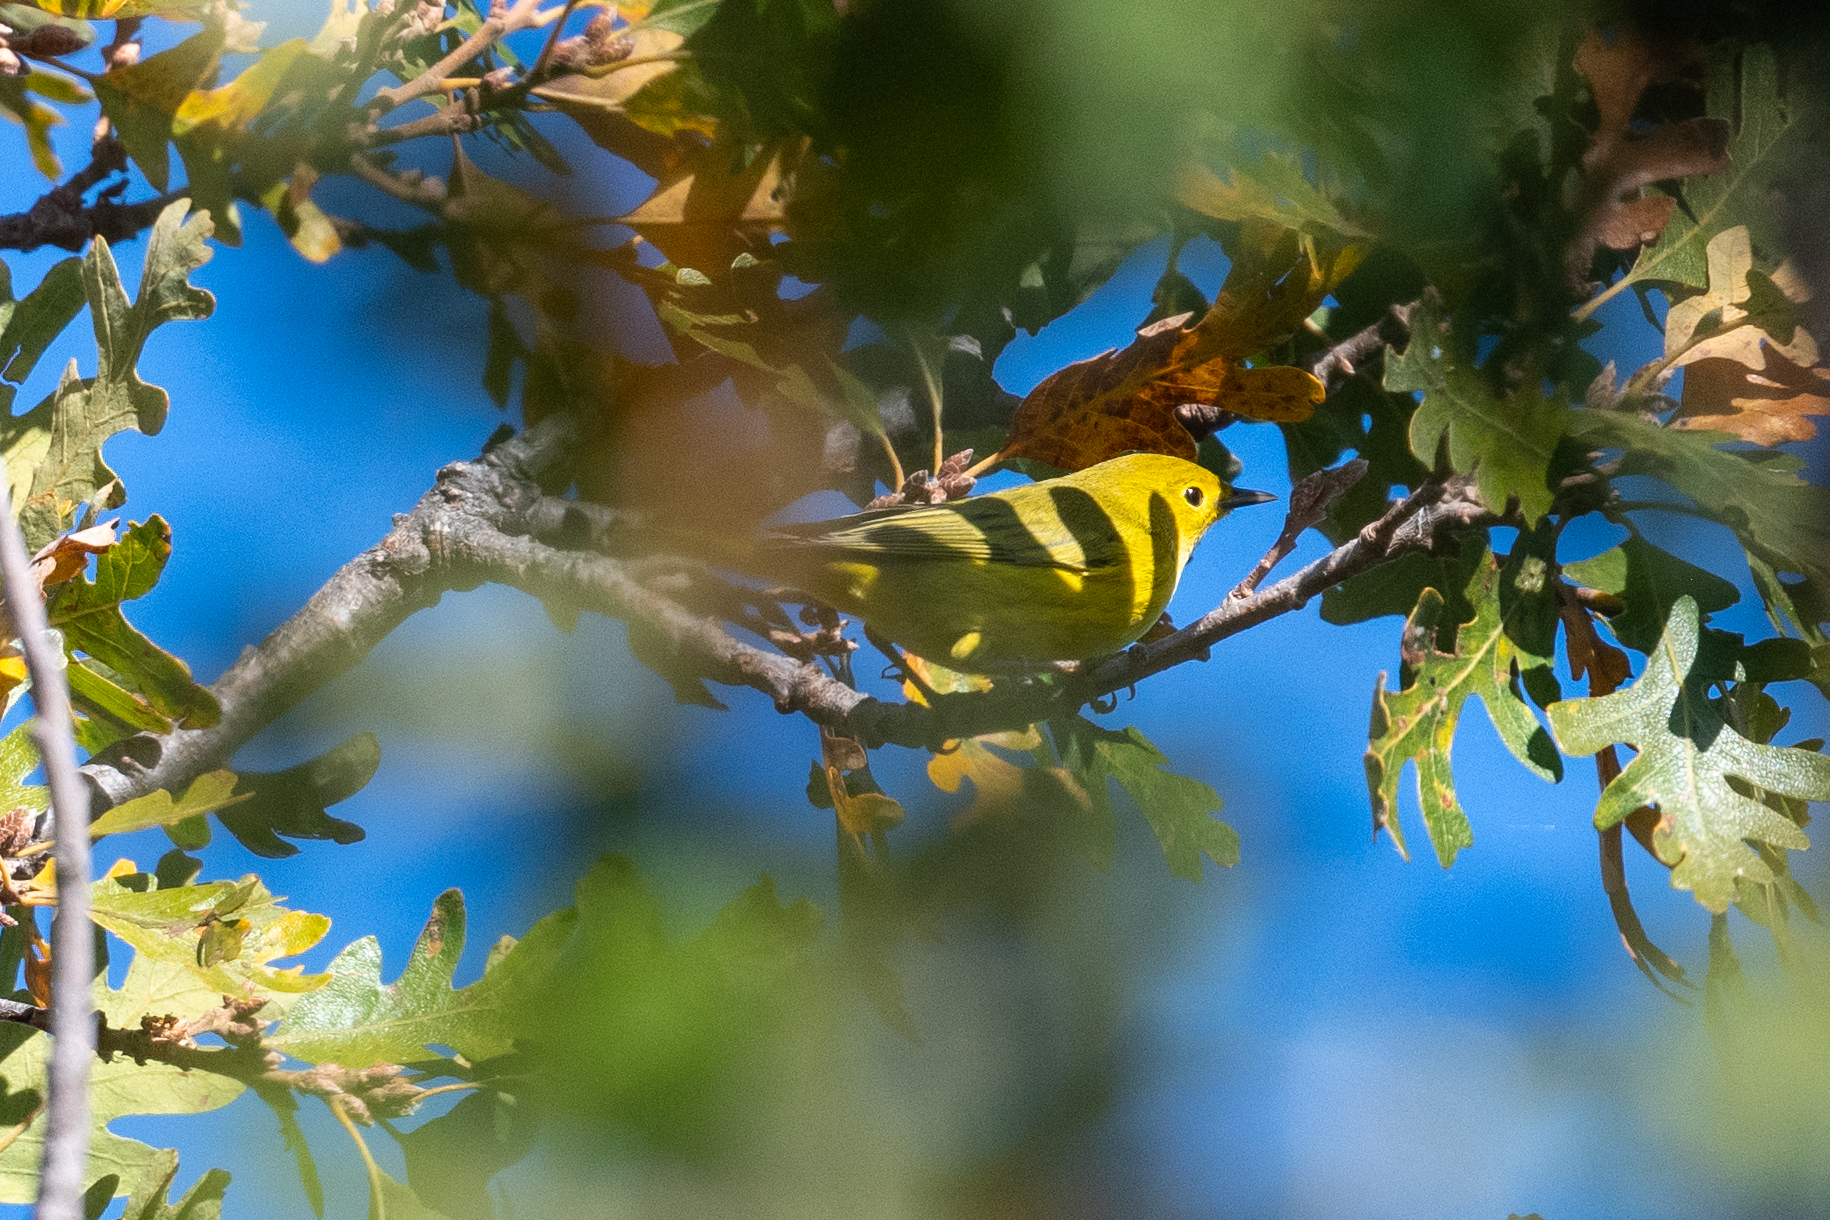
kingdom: Animalia
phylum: Chordata
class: Aves
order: Passeriformes
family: Parulidae
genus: Setophaga
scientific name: Setophaga petechia
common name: Yellow warbler
